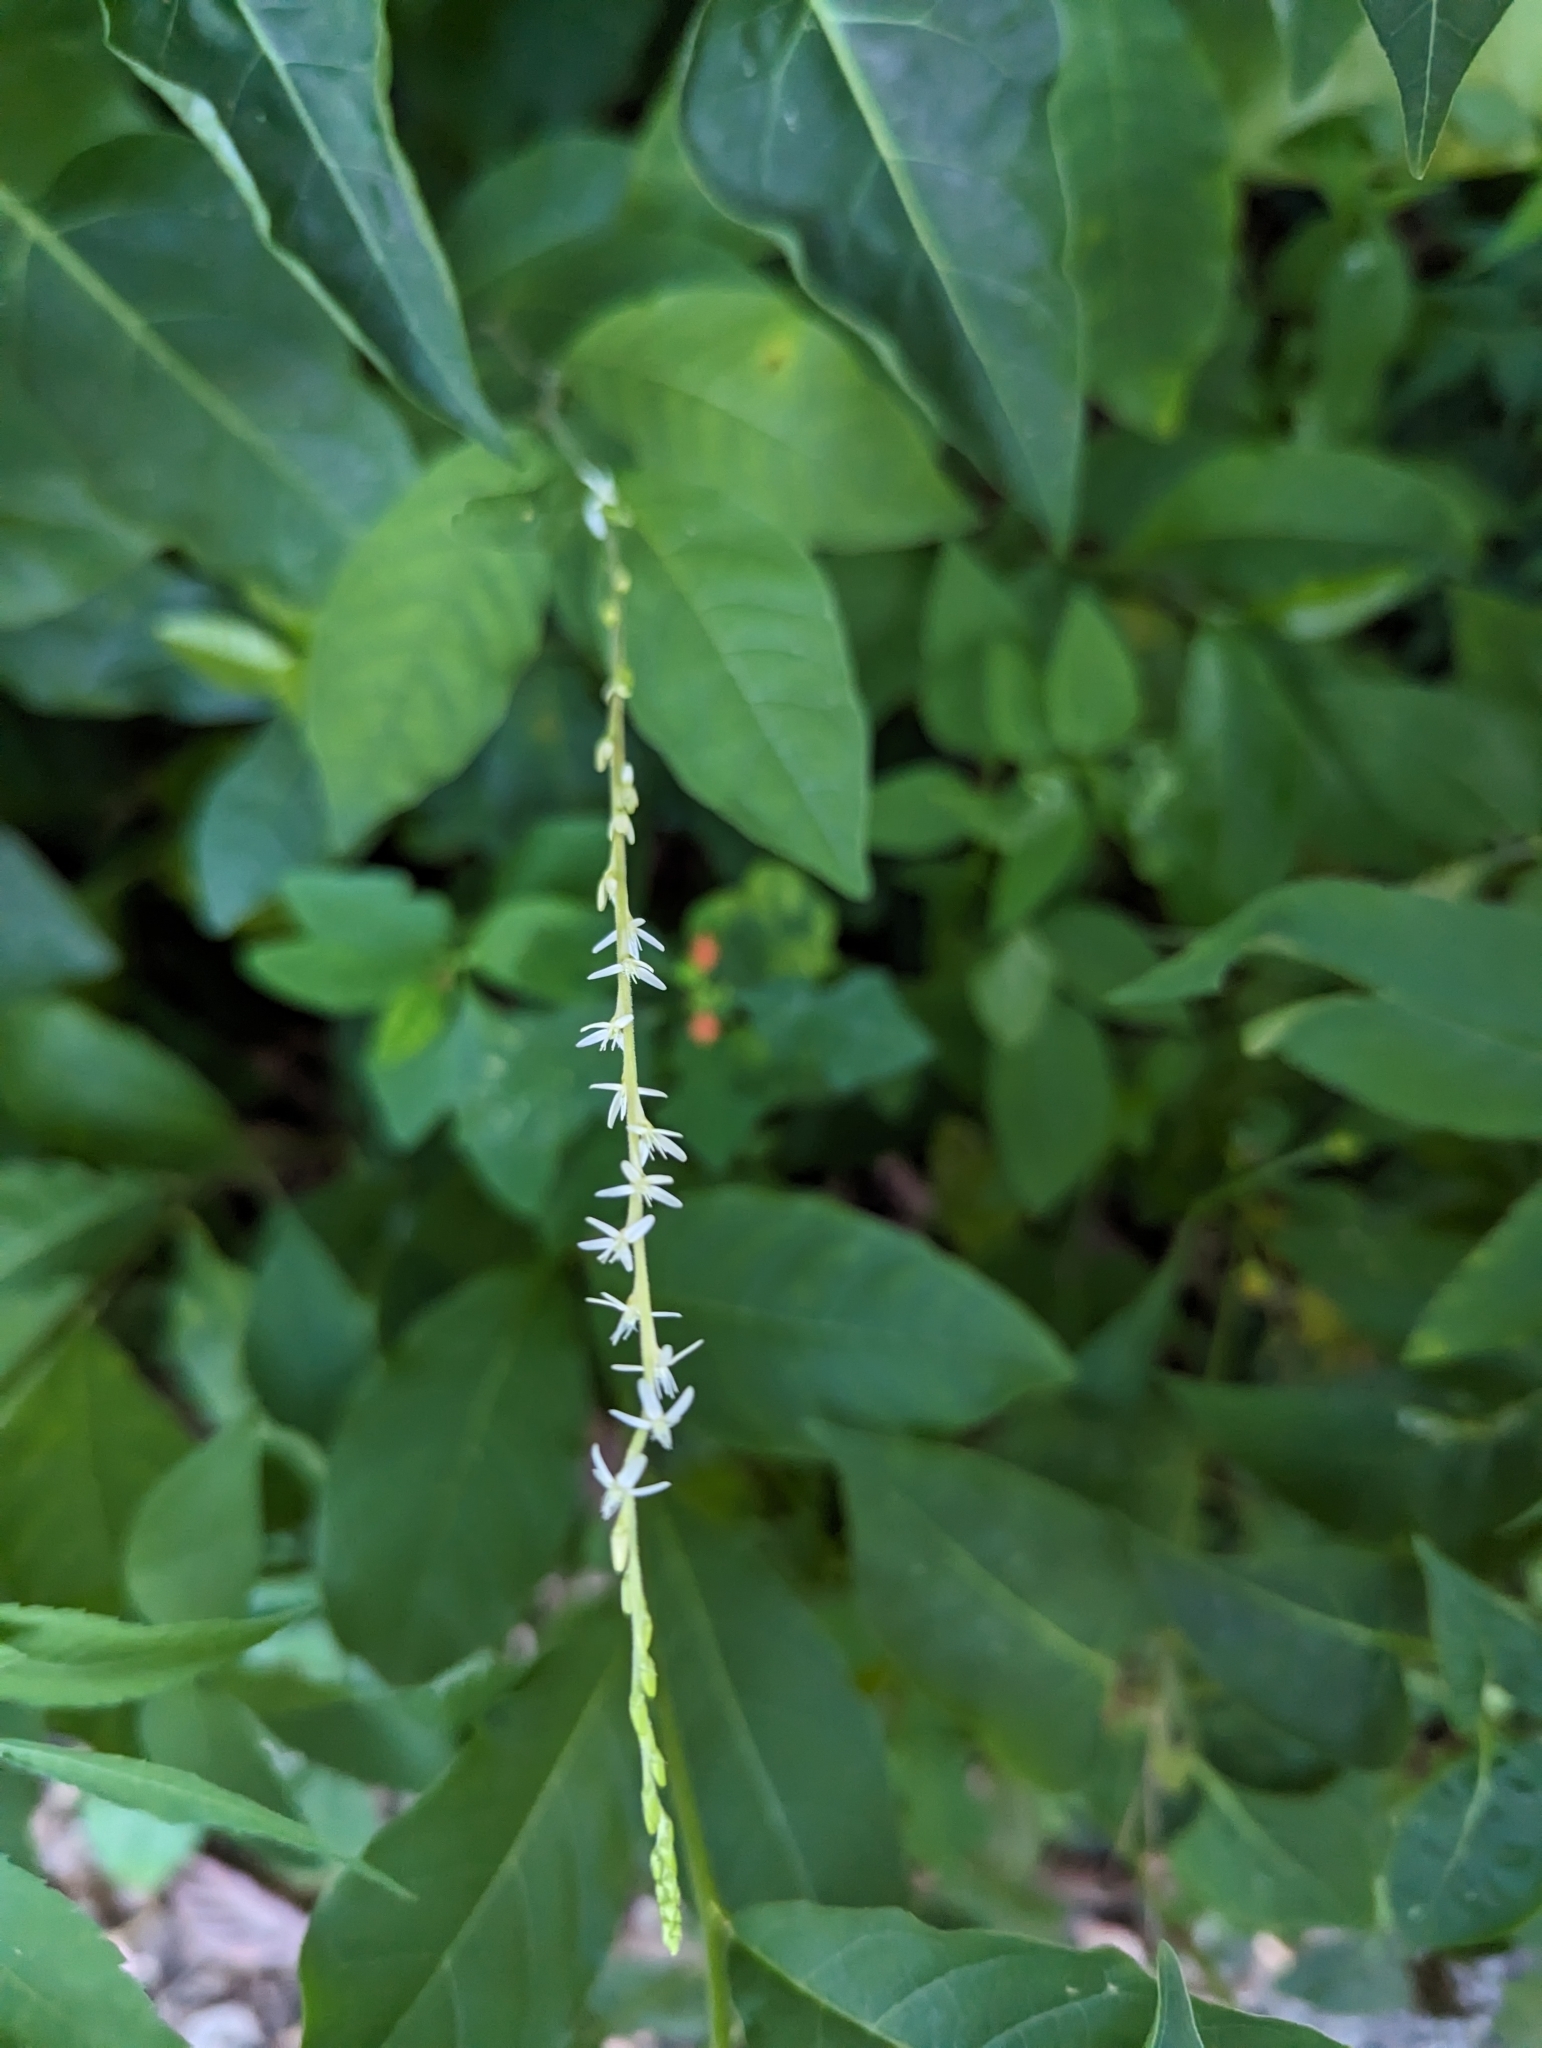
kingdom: Plantae
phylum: Tracheophyta
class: Magnoliopsida
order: Caryophyllales
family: Phytolaccaceae
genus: Petiveria
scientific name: Petiveria alliacea
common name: Garlicweed
